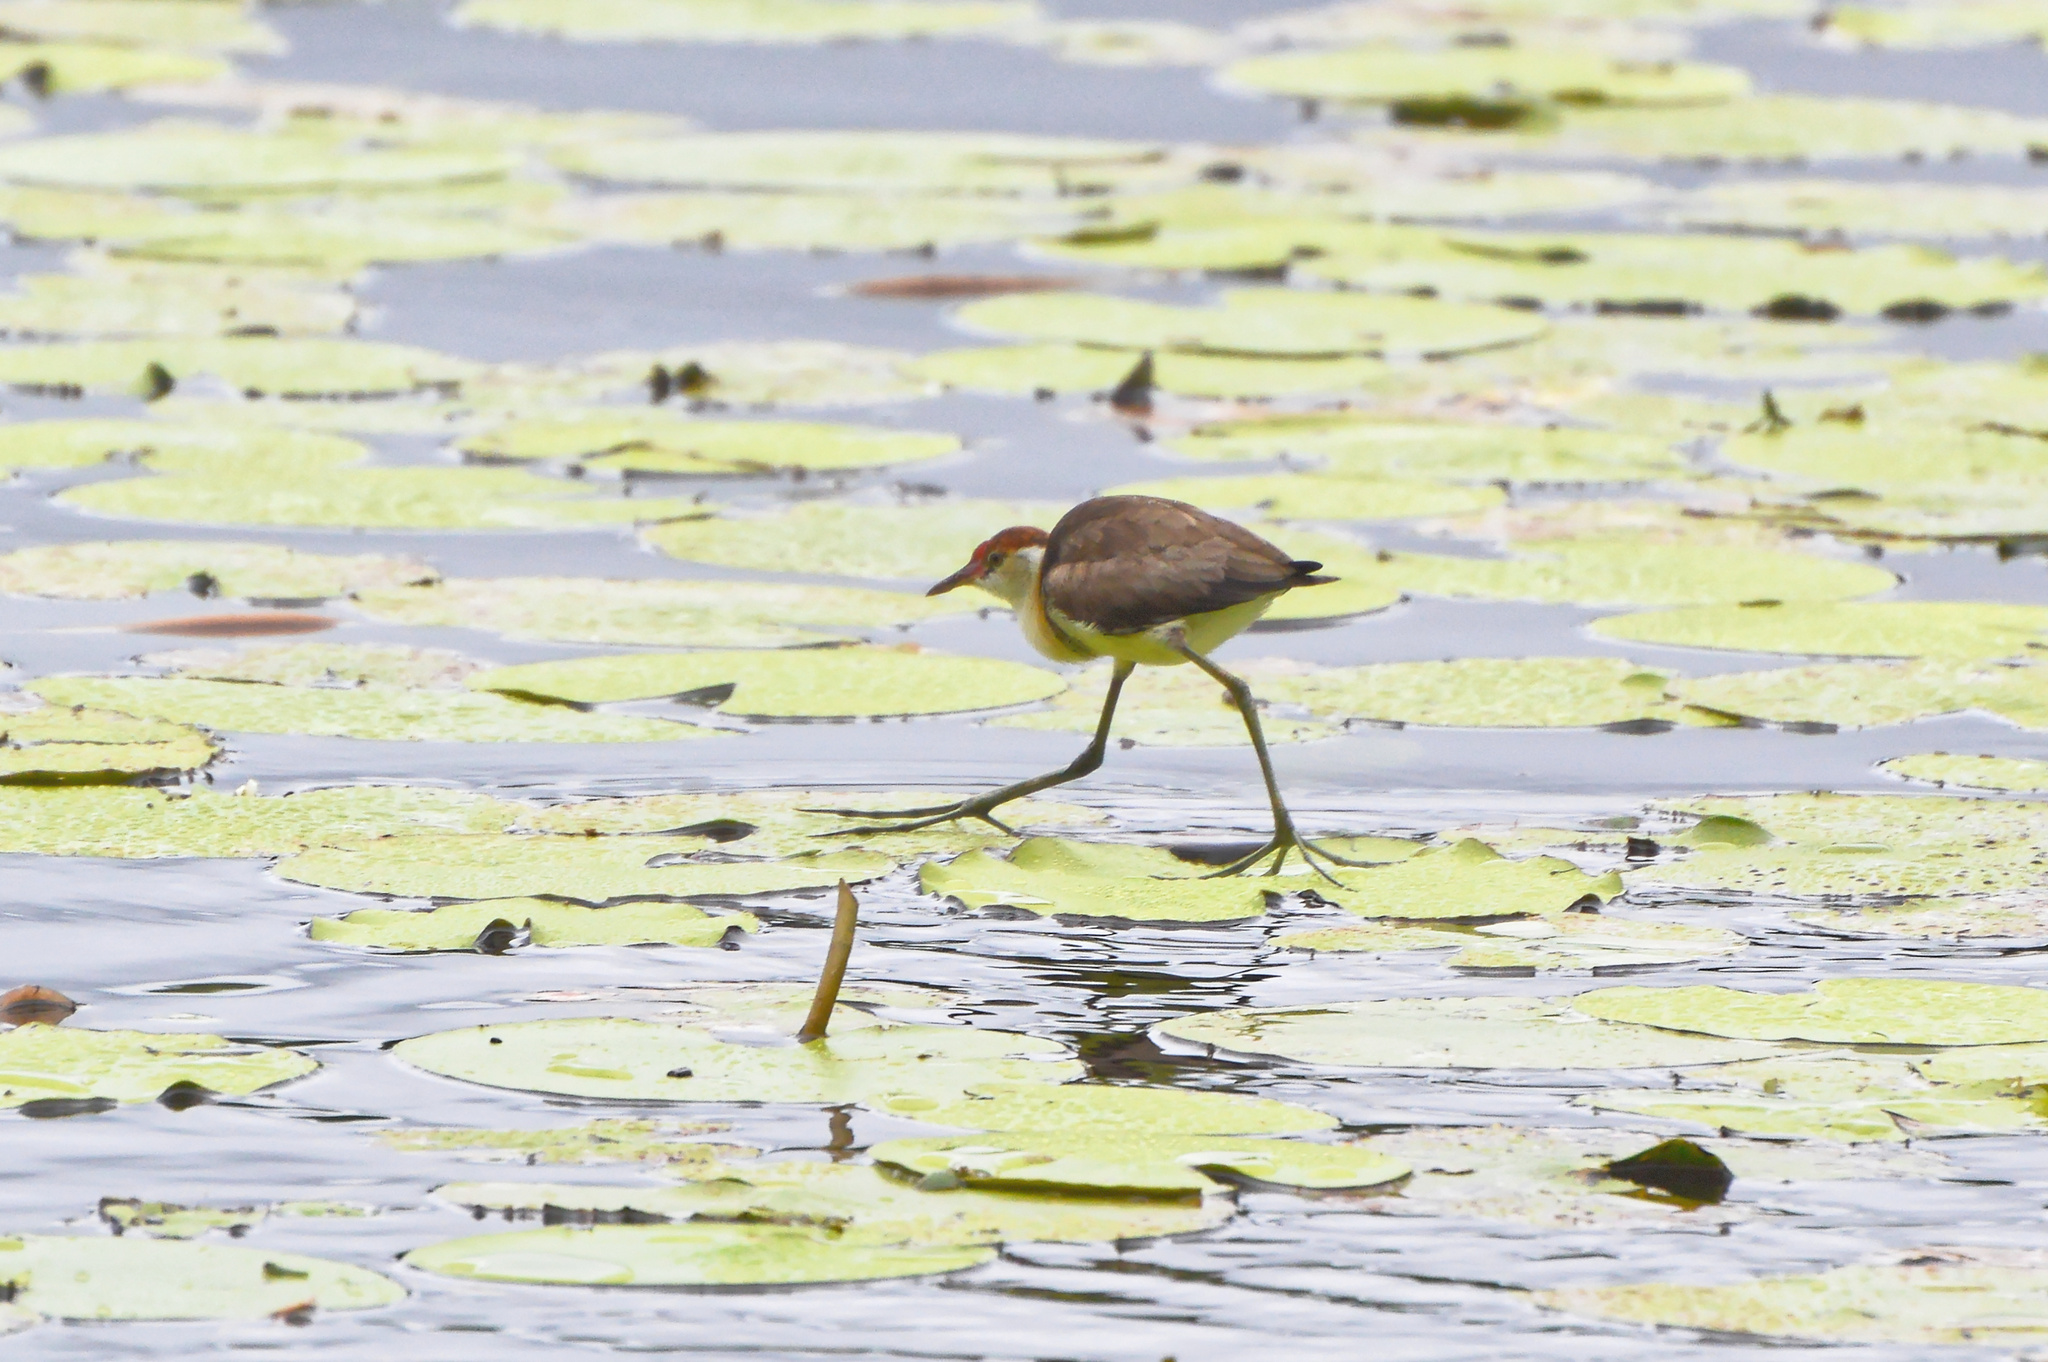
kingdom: Animalia
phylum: Chordata
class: Aves
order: Charadriiformes
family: Jacanidae
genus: Irediparra
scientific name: Irediparra gallinacea
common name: Comb-crested jacana
